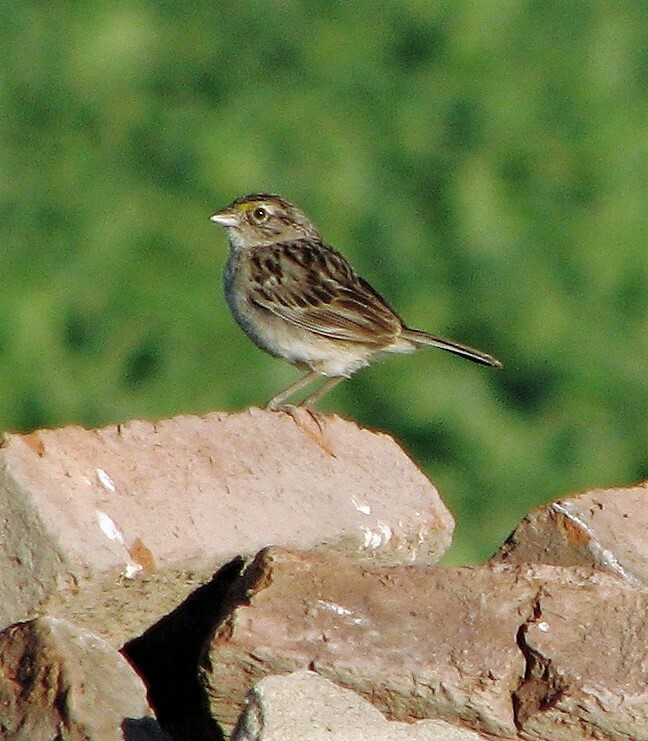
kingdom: Animalia
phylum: Chordata
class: Aves
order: Passeriformes
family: Passerellidae
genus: Ammodramus
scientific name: Ammodramus humeralis
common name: Grassland sparrow
